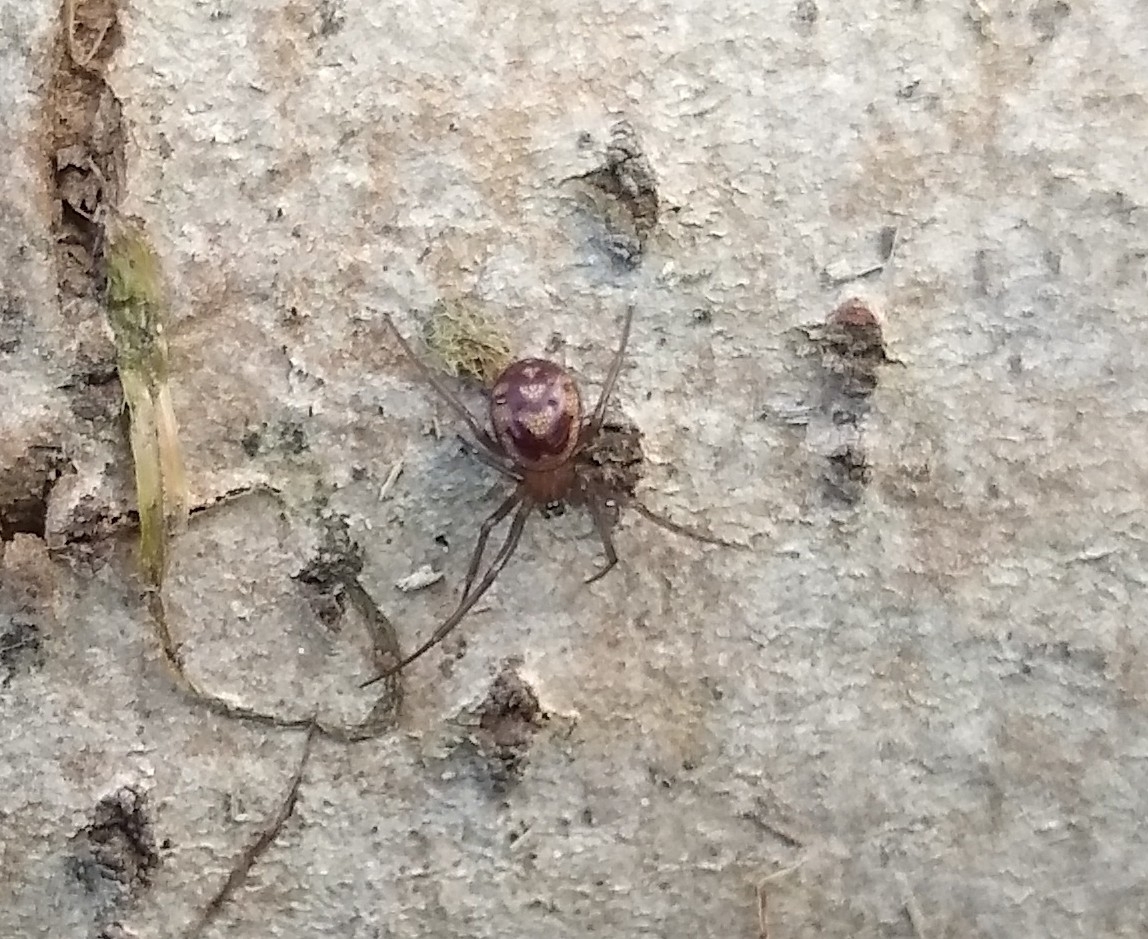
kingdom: Animalia
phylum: Arthropoda
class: Arachnida
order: Araneae
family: Theridiidae
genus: Steatoda
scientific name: Steatoda grossa
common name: False black widow
